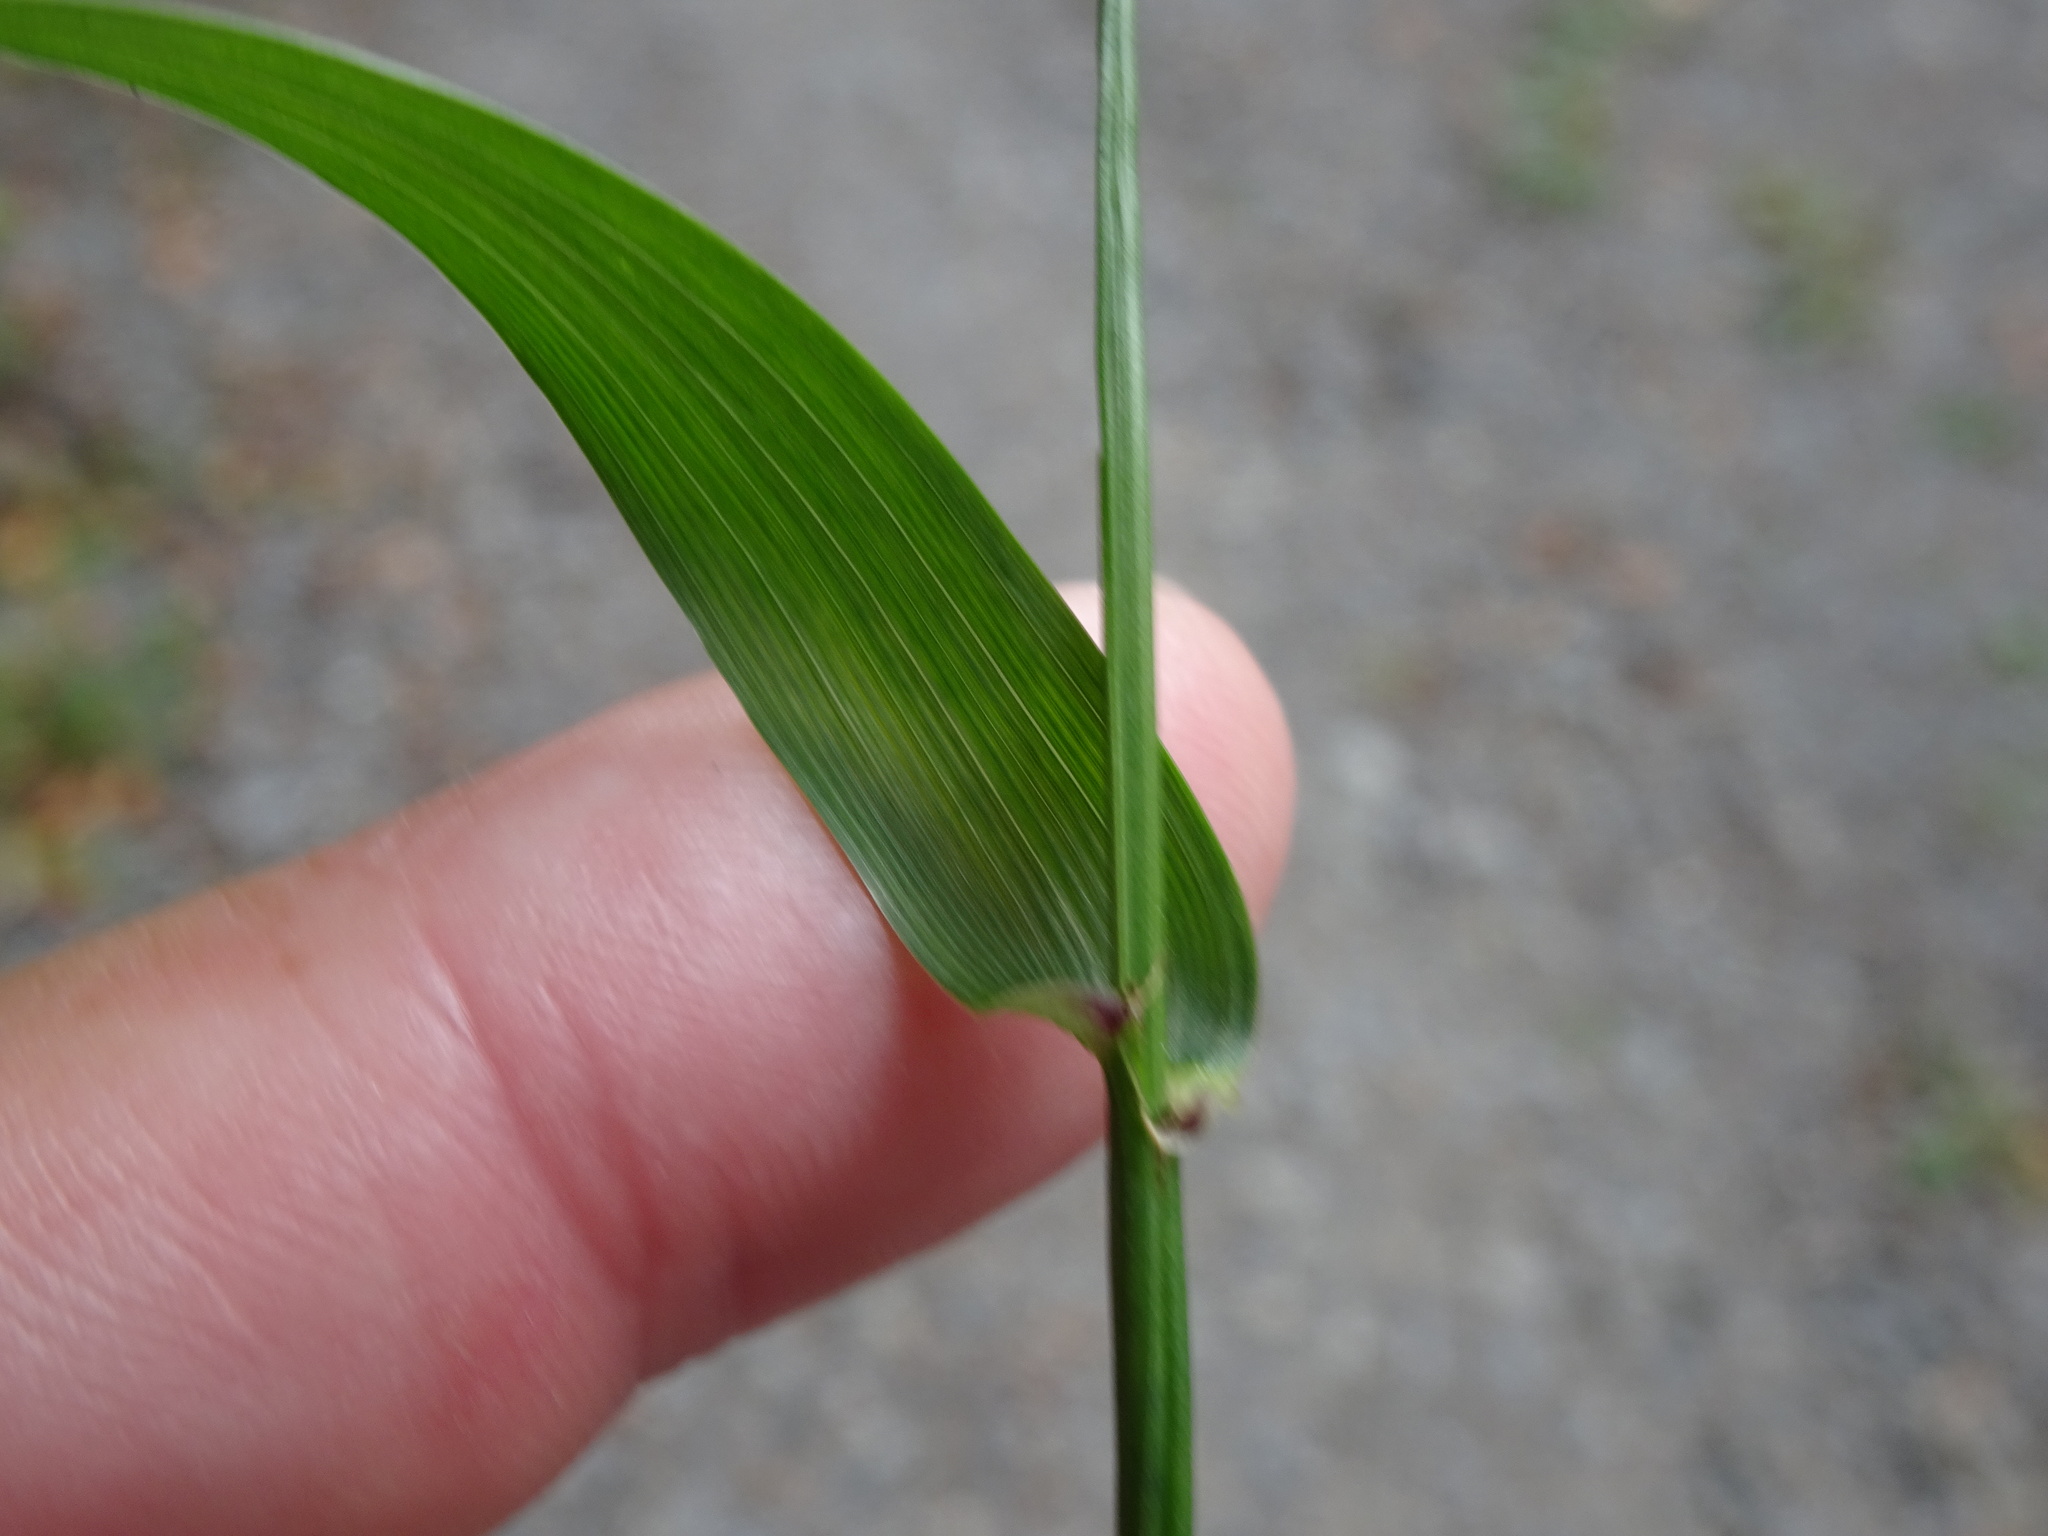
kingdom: Plantae
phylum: Tracheophyta
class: Liliopsida
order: Poales
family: Poaceae
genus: Lolium
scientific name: Lolium giganteum
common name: Giant fescue
